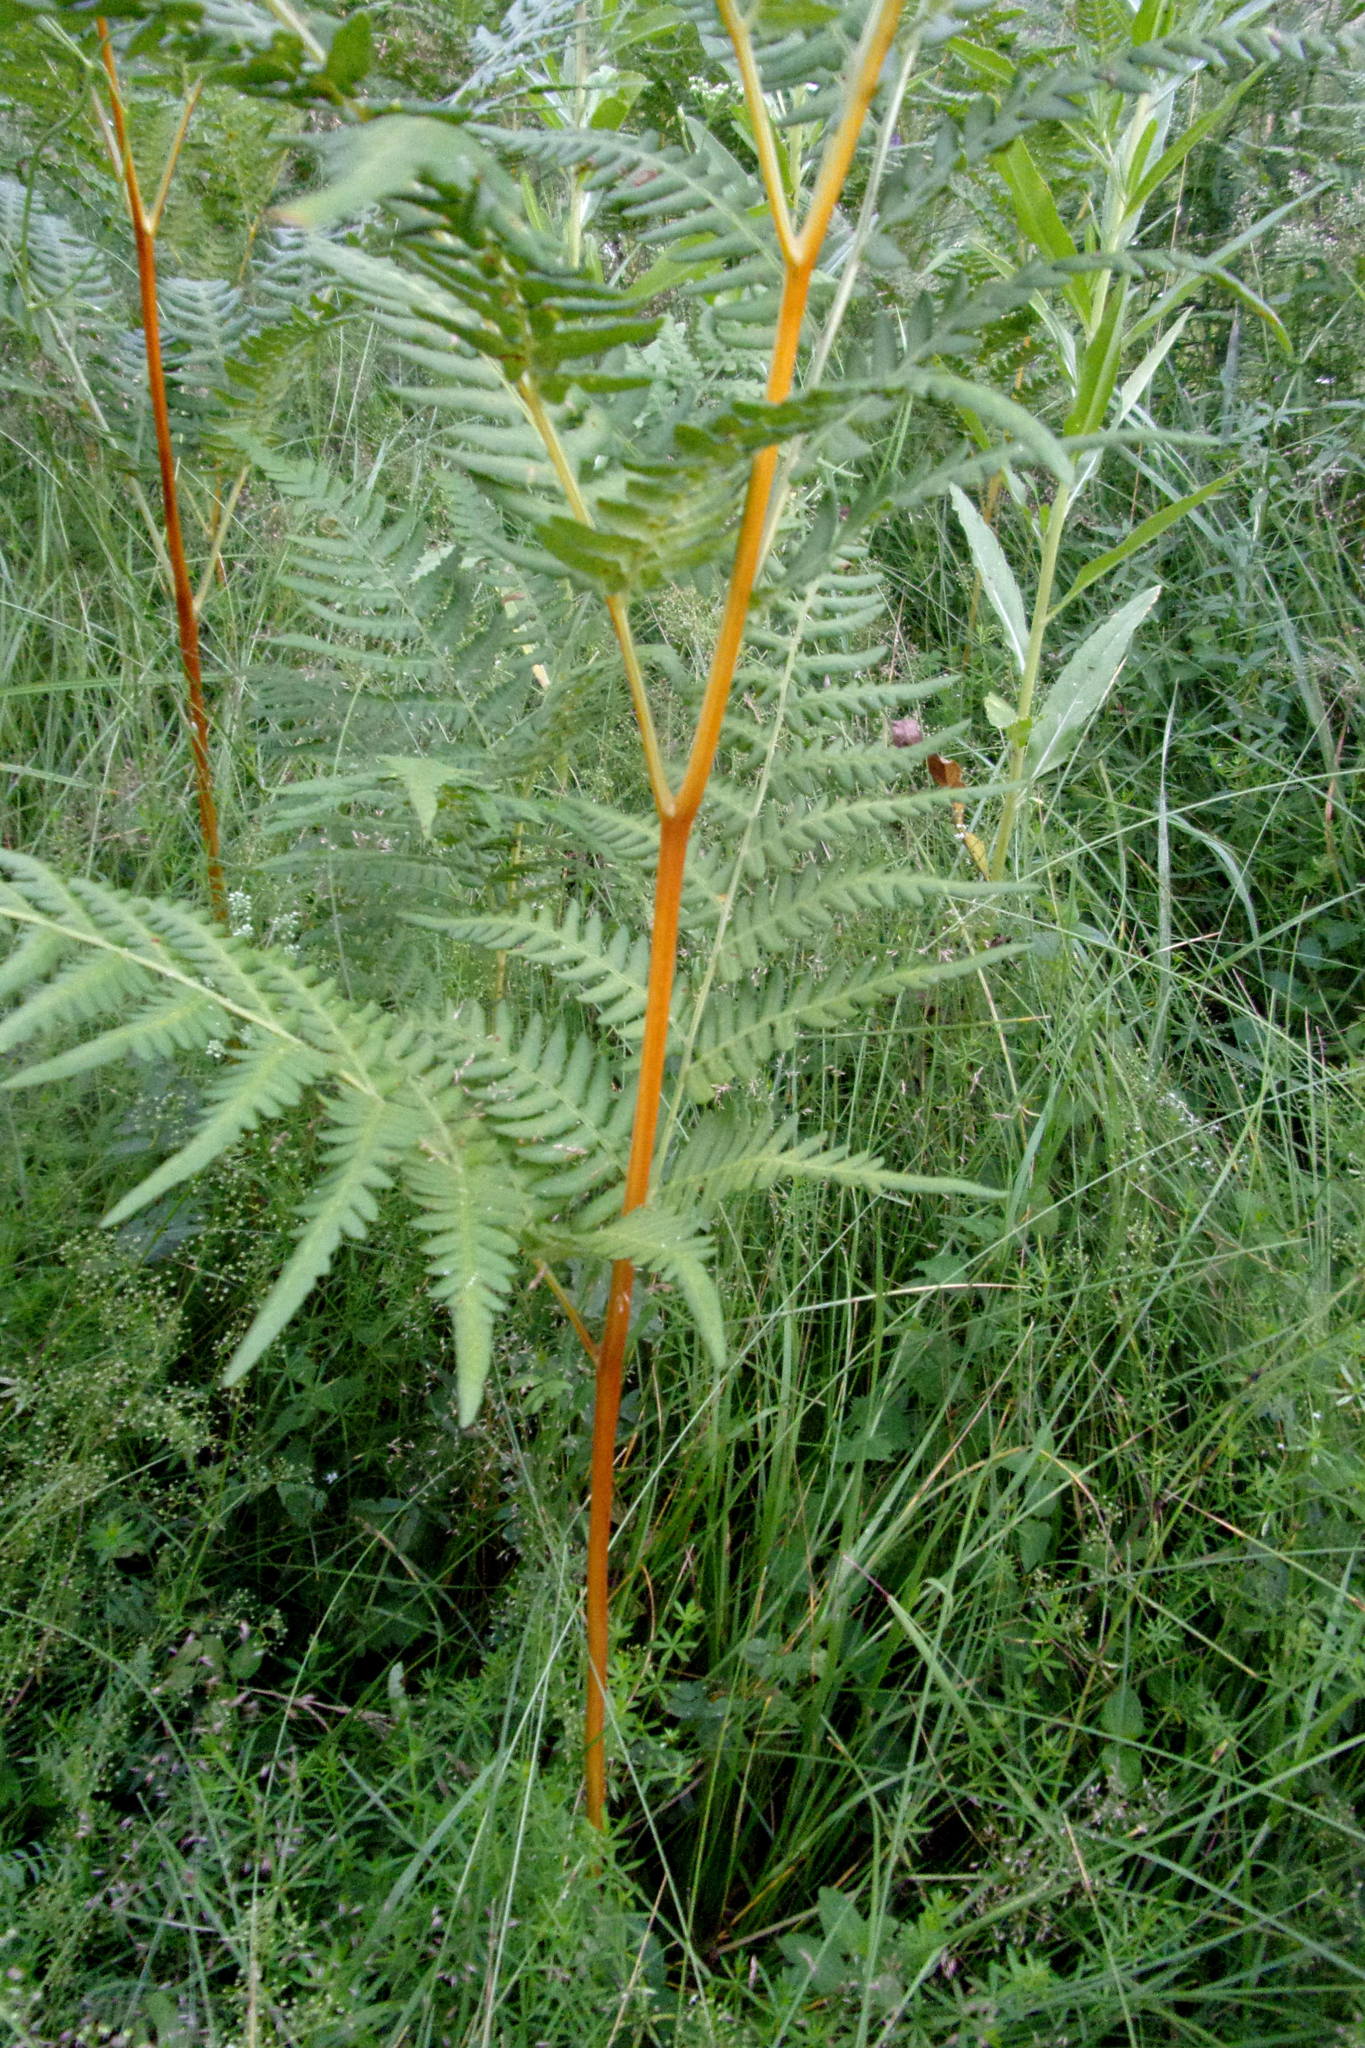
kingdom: Plantae
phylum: Tracheophyta
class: Polypodiopsida
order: Polypodiales
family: Dennstaedtiaceae
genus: Pteridium
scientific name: Pteridium aquilinum
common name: Bracken
